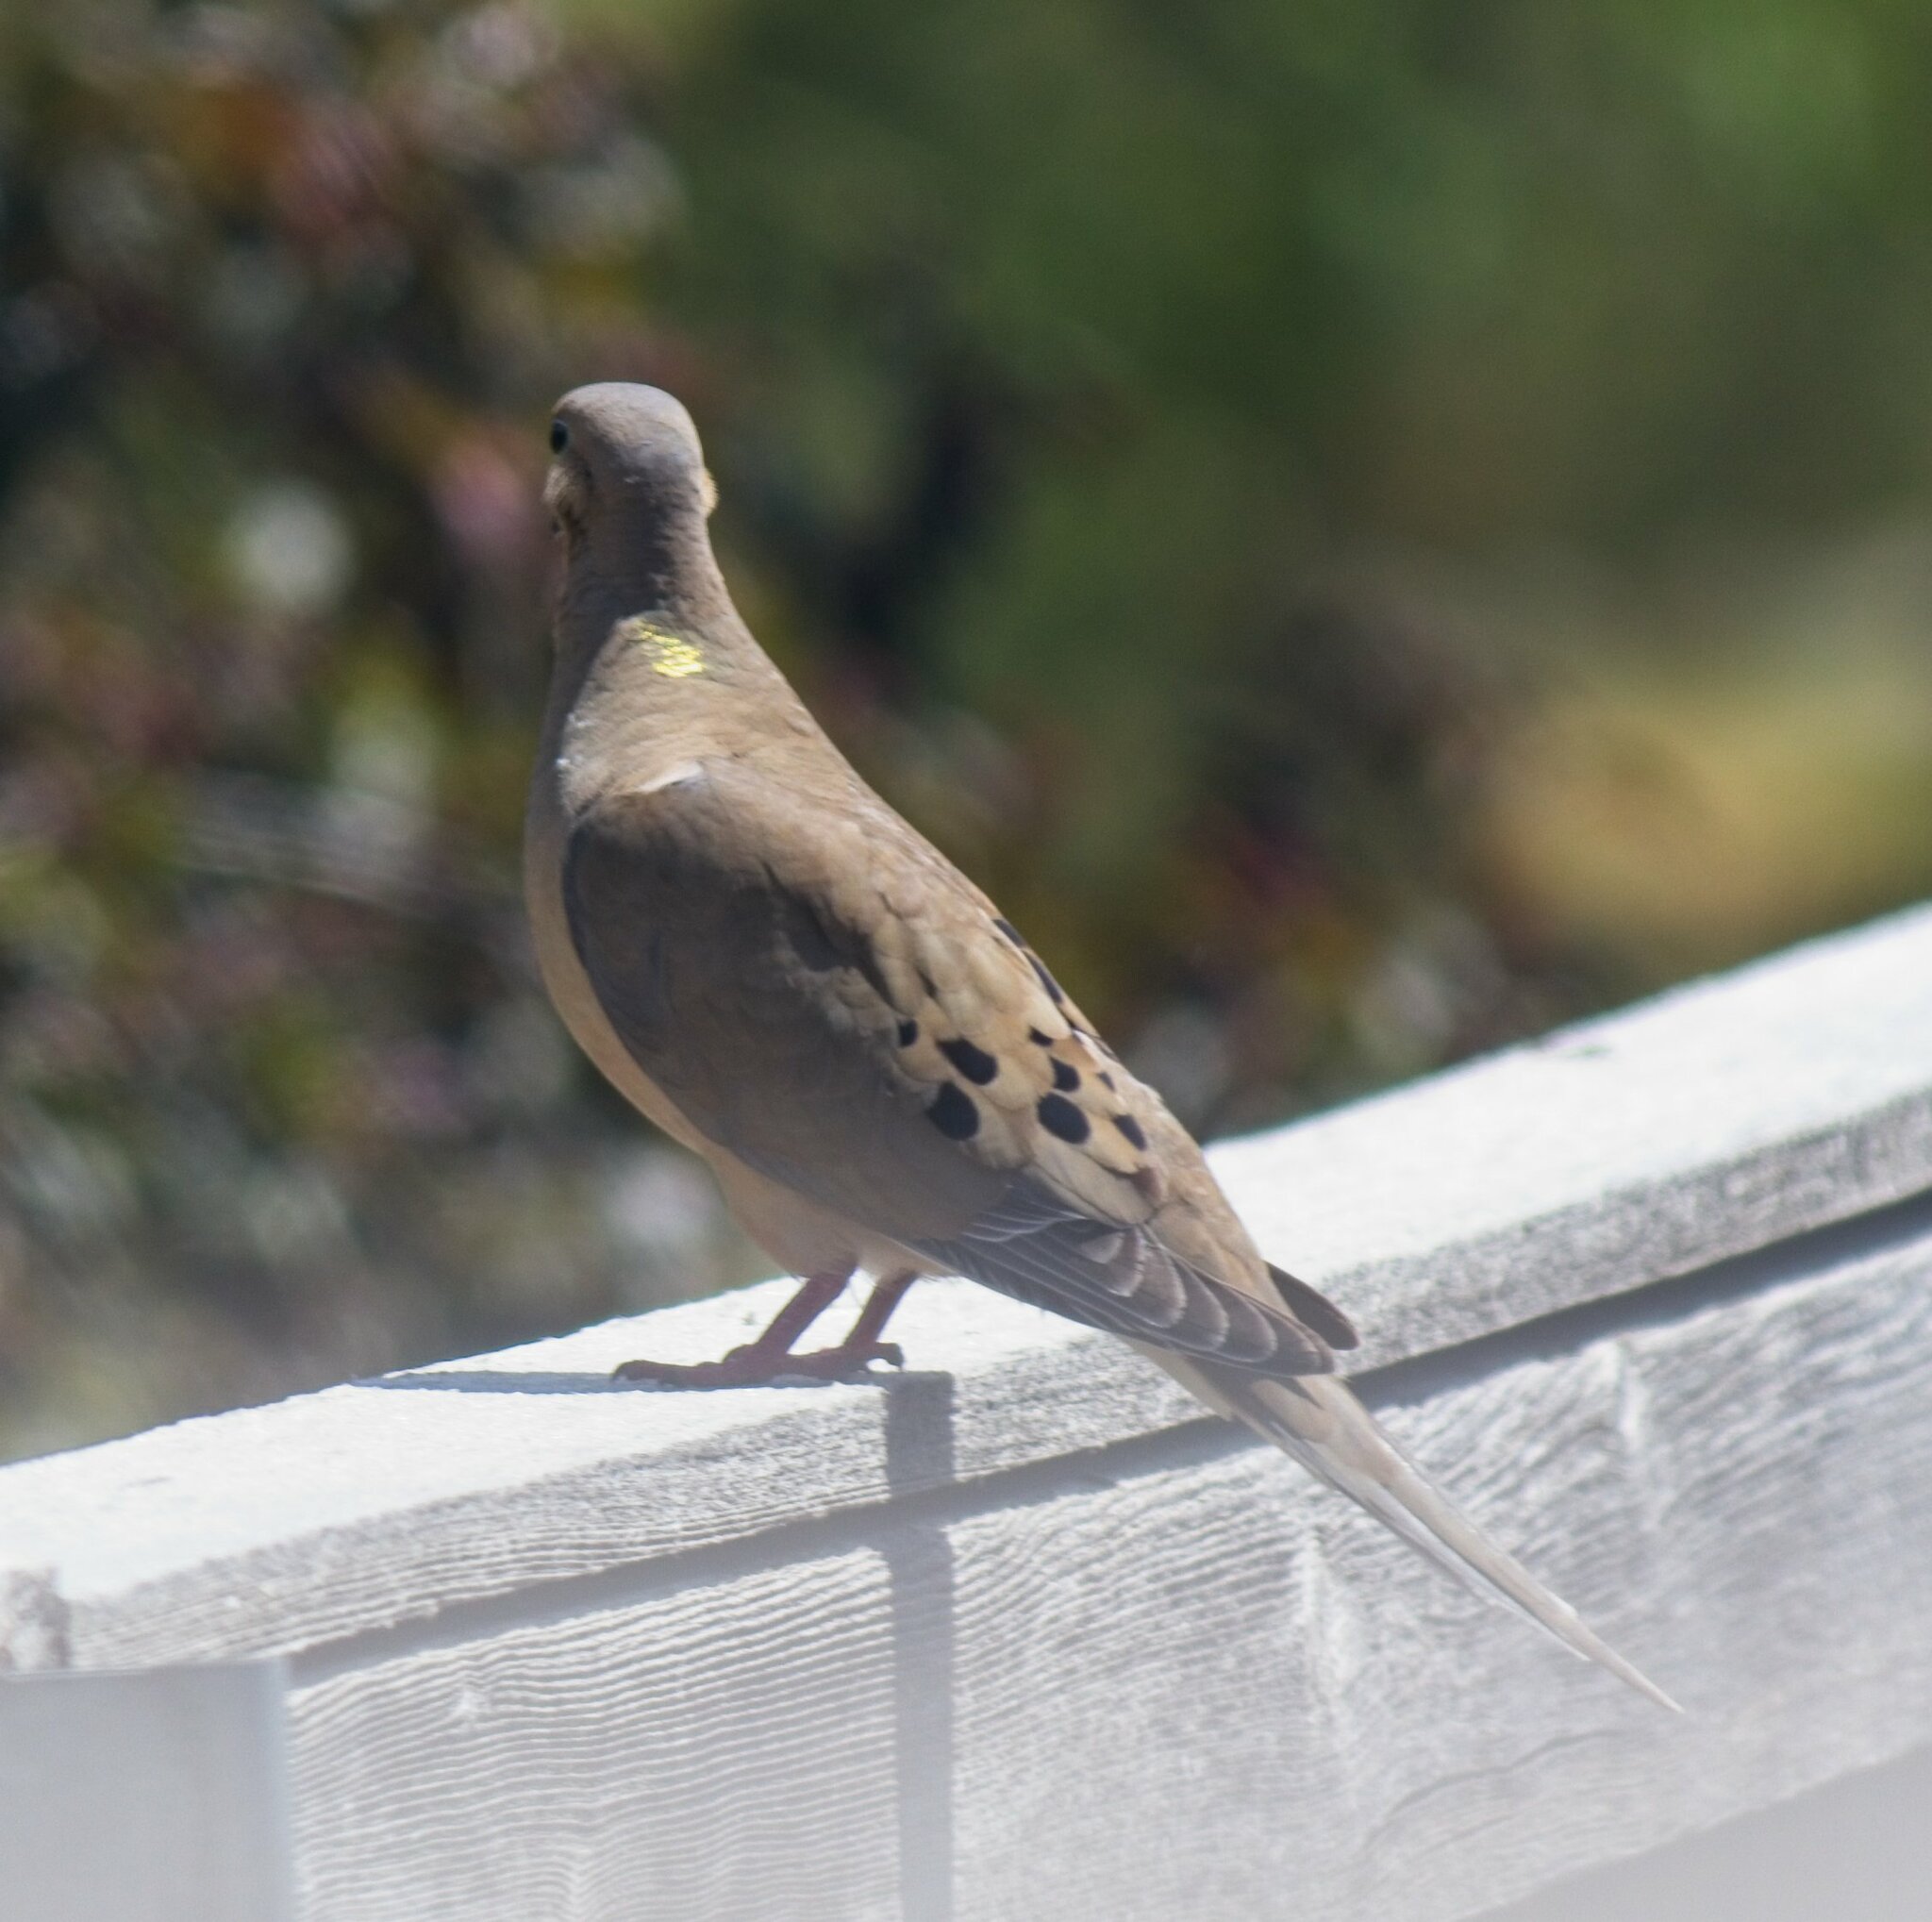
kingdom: Animalia
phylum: Chordata
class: Aves
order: Columbiformes
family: Columbidae
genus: Zenaida
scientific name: Zenaida macroura
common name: Mourning dove
